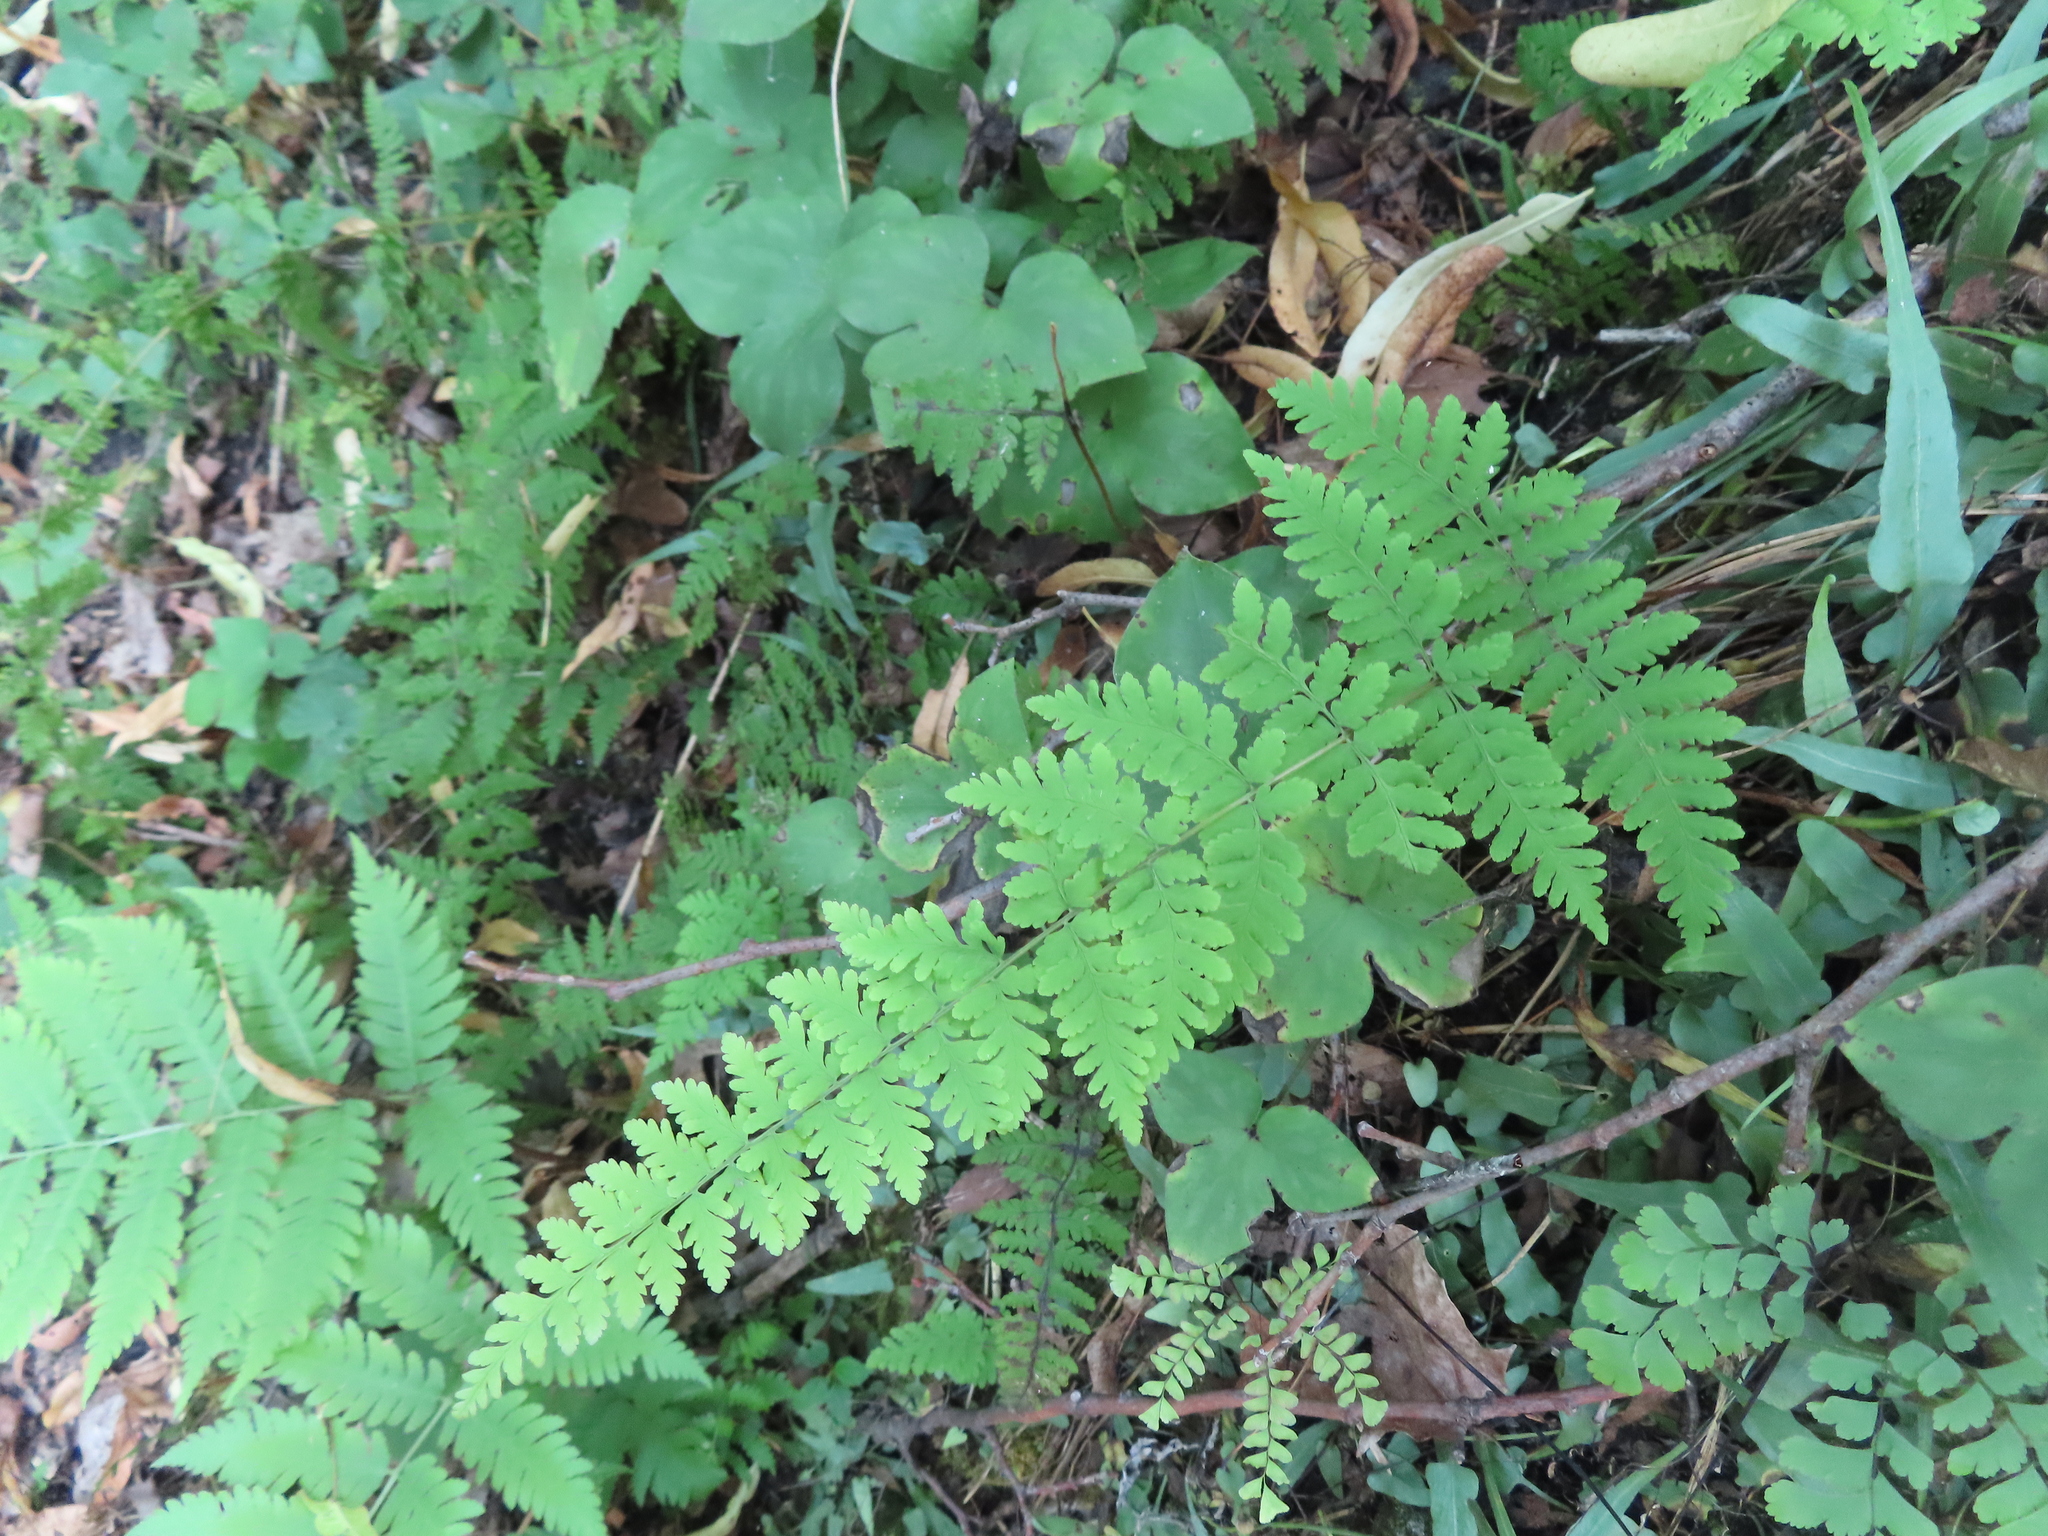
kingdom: Plantae
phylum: Tracheophyta
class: Polypodiopsida
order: Polypodiales
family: Cystopteridaceae
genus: Cystopteris
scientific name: Cystopteris bulbifera
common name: Bulblet bladder fern
